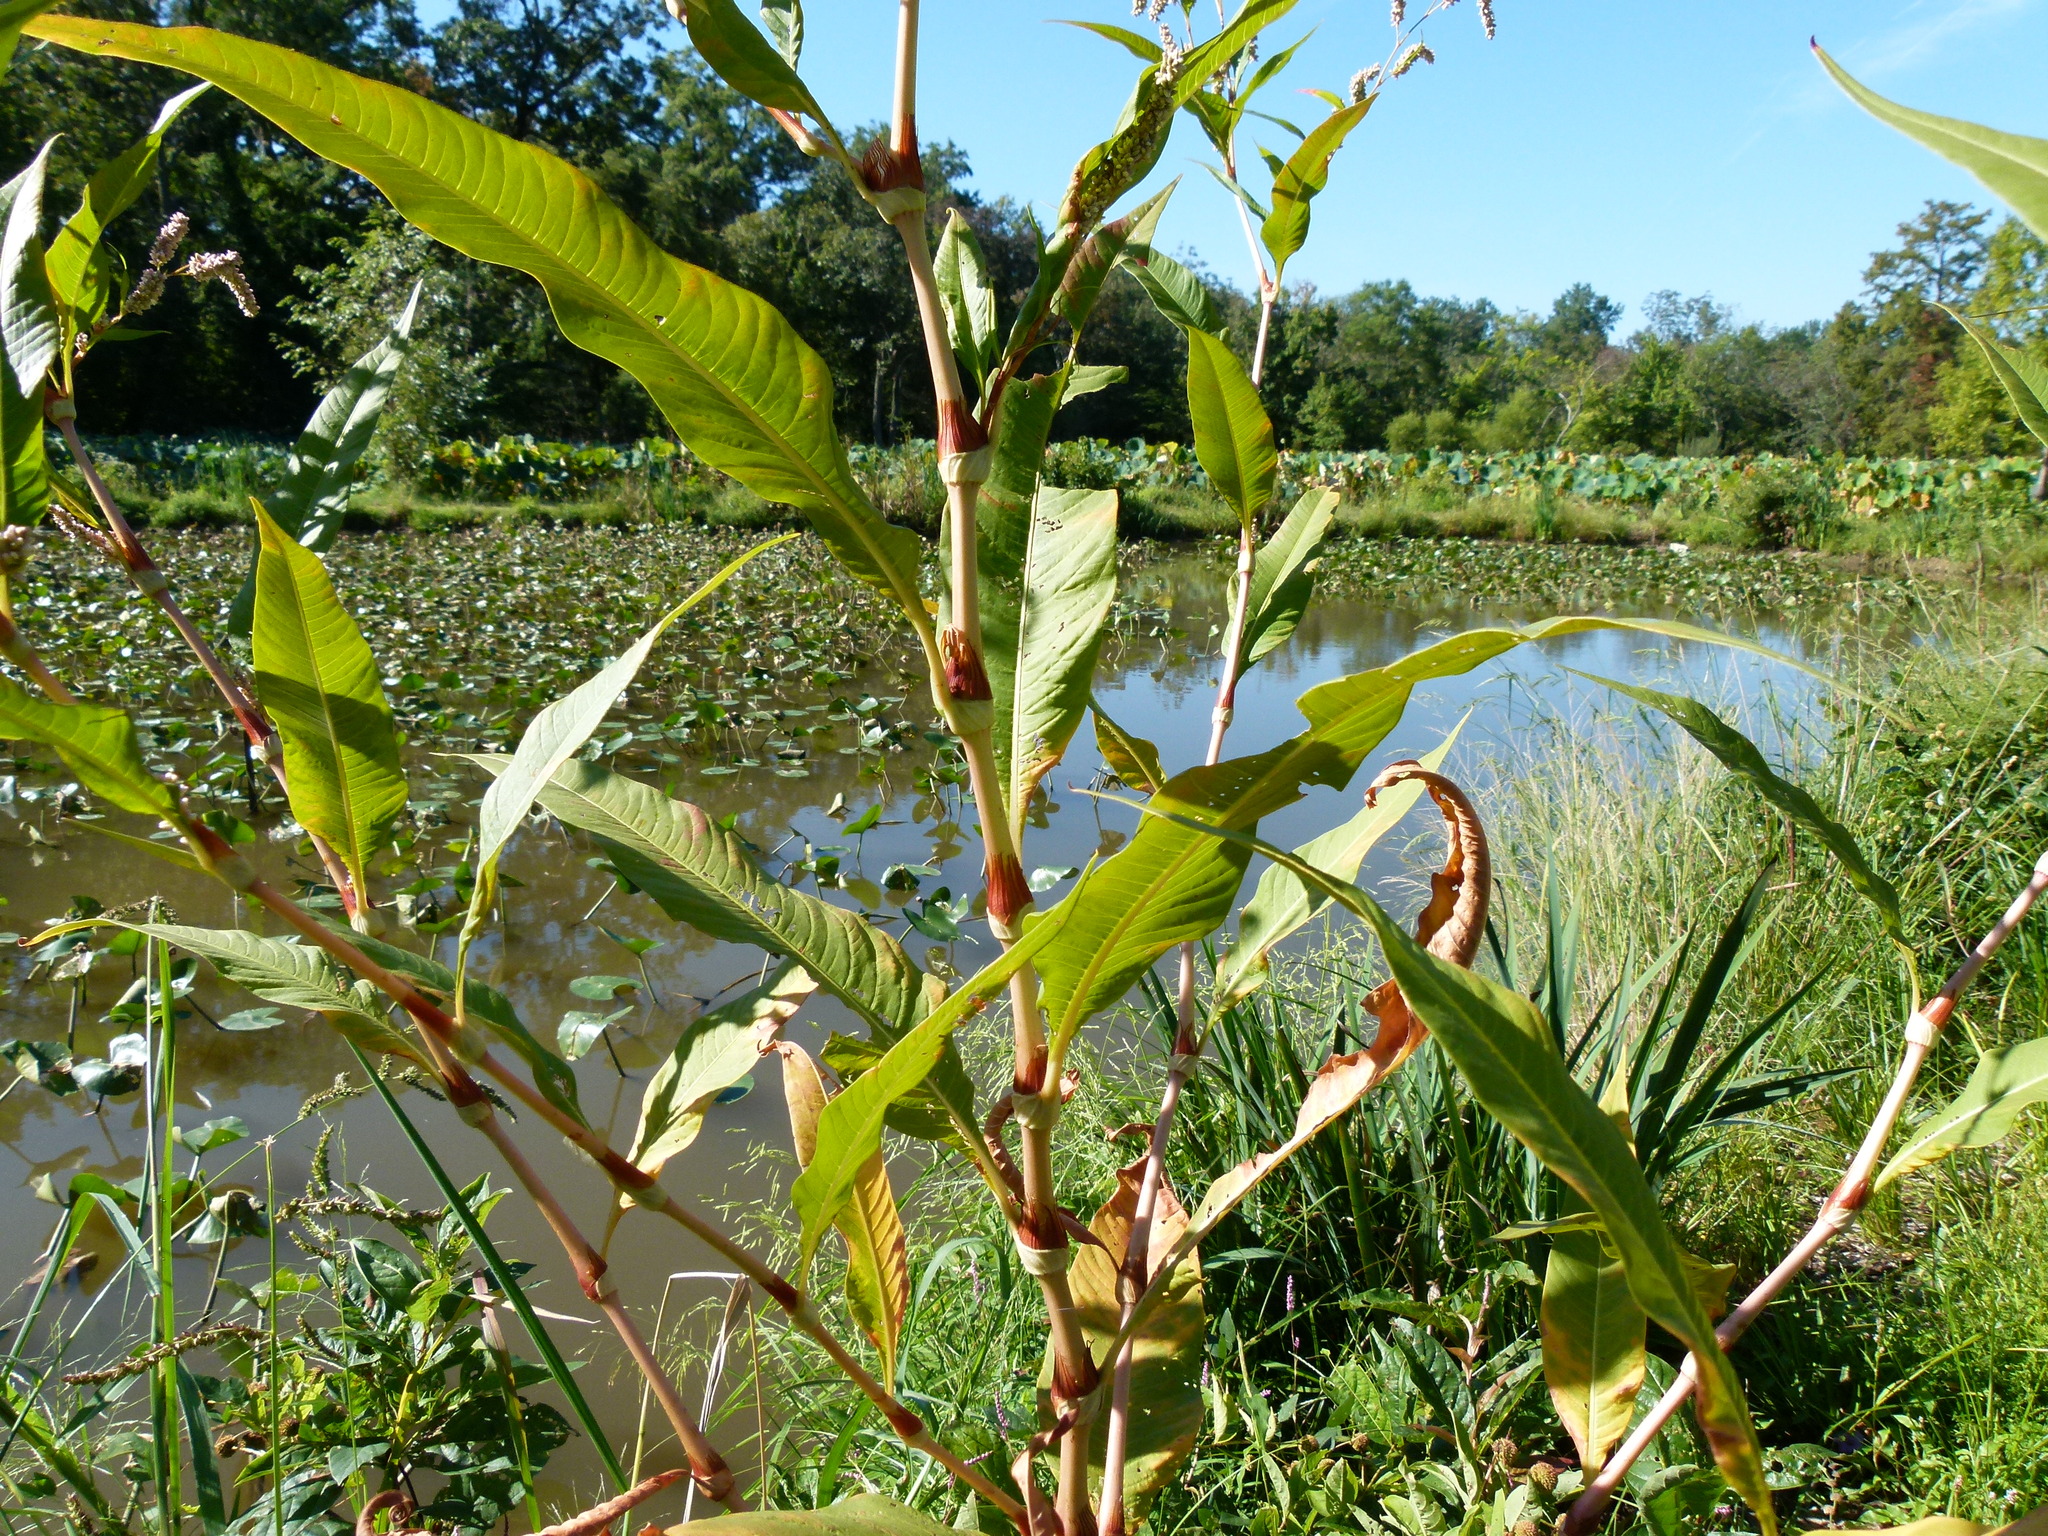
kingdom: Plantae
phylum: Tracheophyta
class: Magnoliopsida
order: Caryophyllales
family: Polygonaceae
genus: Persicaria
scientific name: Persicaria lapathifolia
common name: Curlytop knotweed
